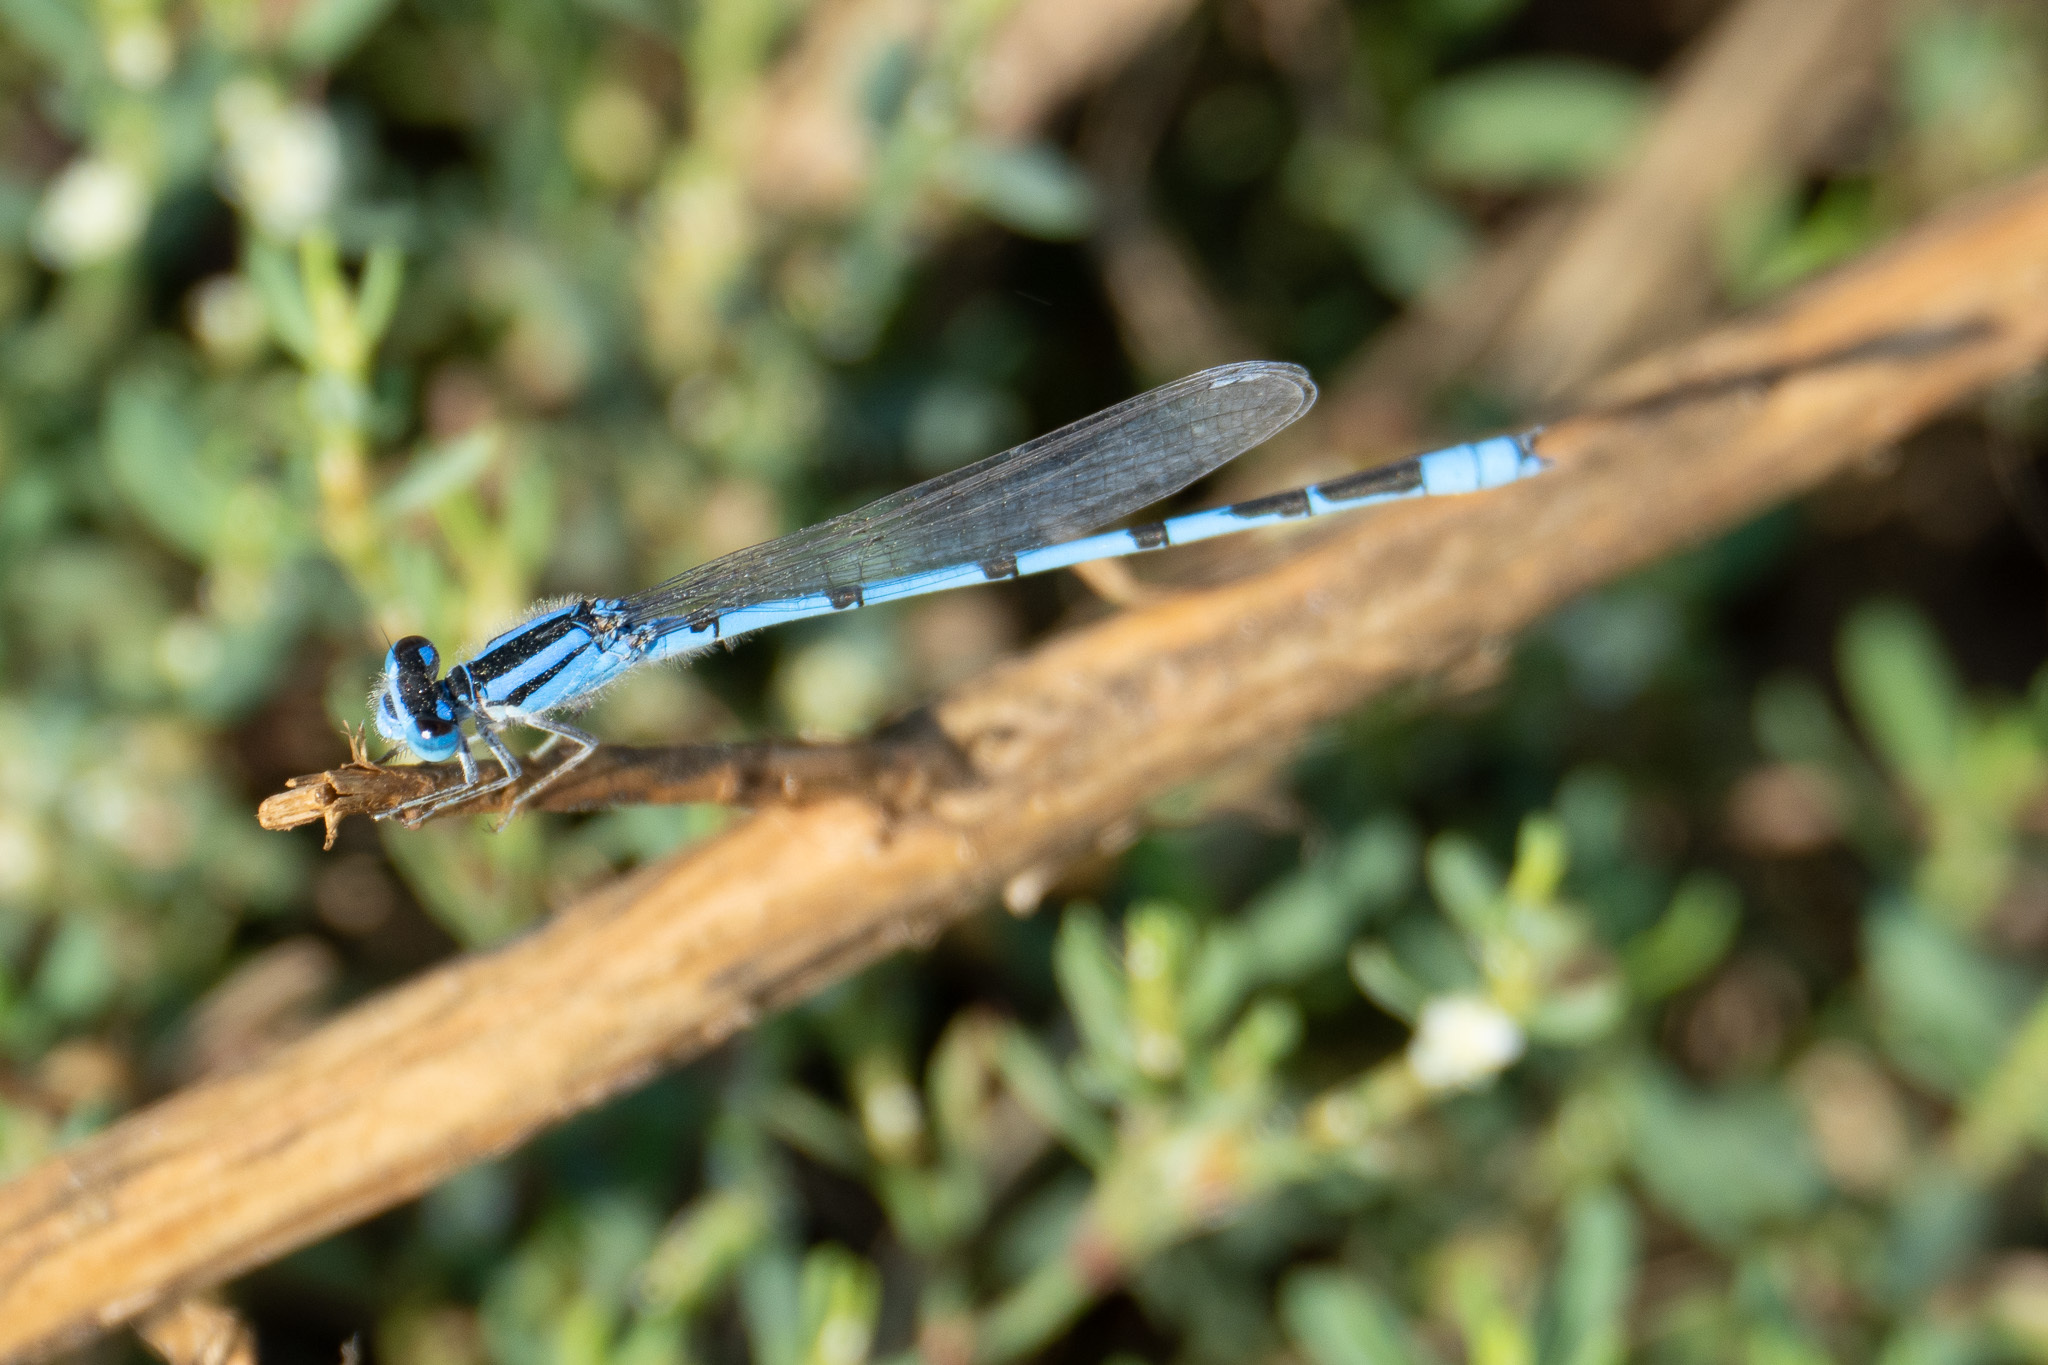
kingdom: Animalia
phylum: Arthropoda
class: Insecta
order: Odonata
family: Coenagrionidae
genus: Enallagma
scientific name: Enallagma civile
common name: Damselfly
